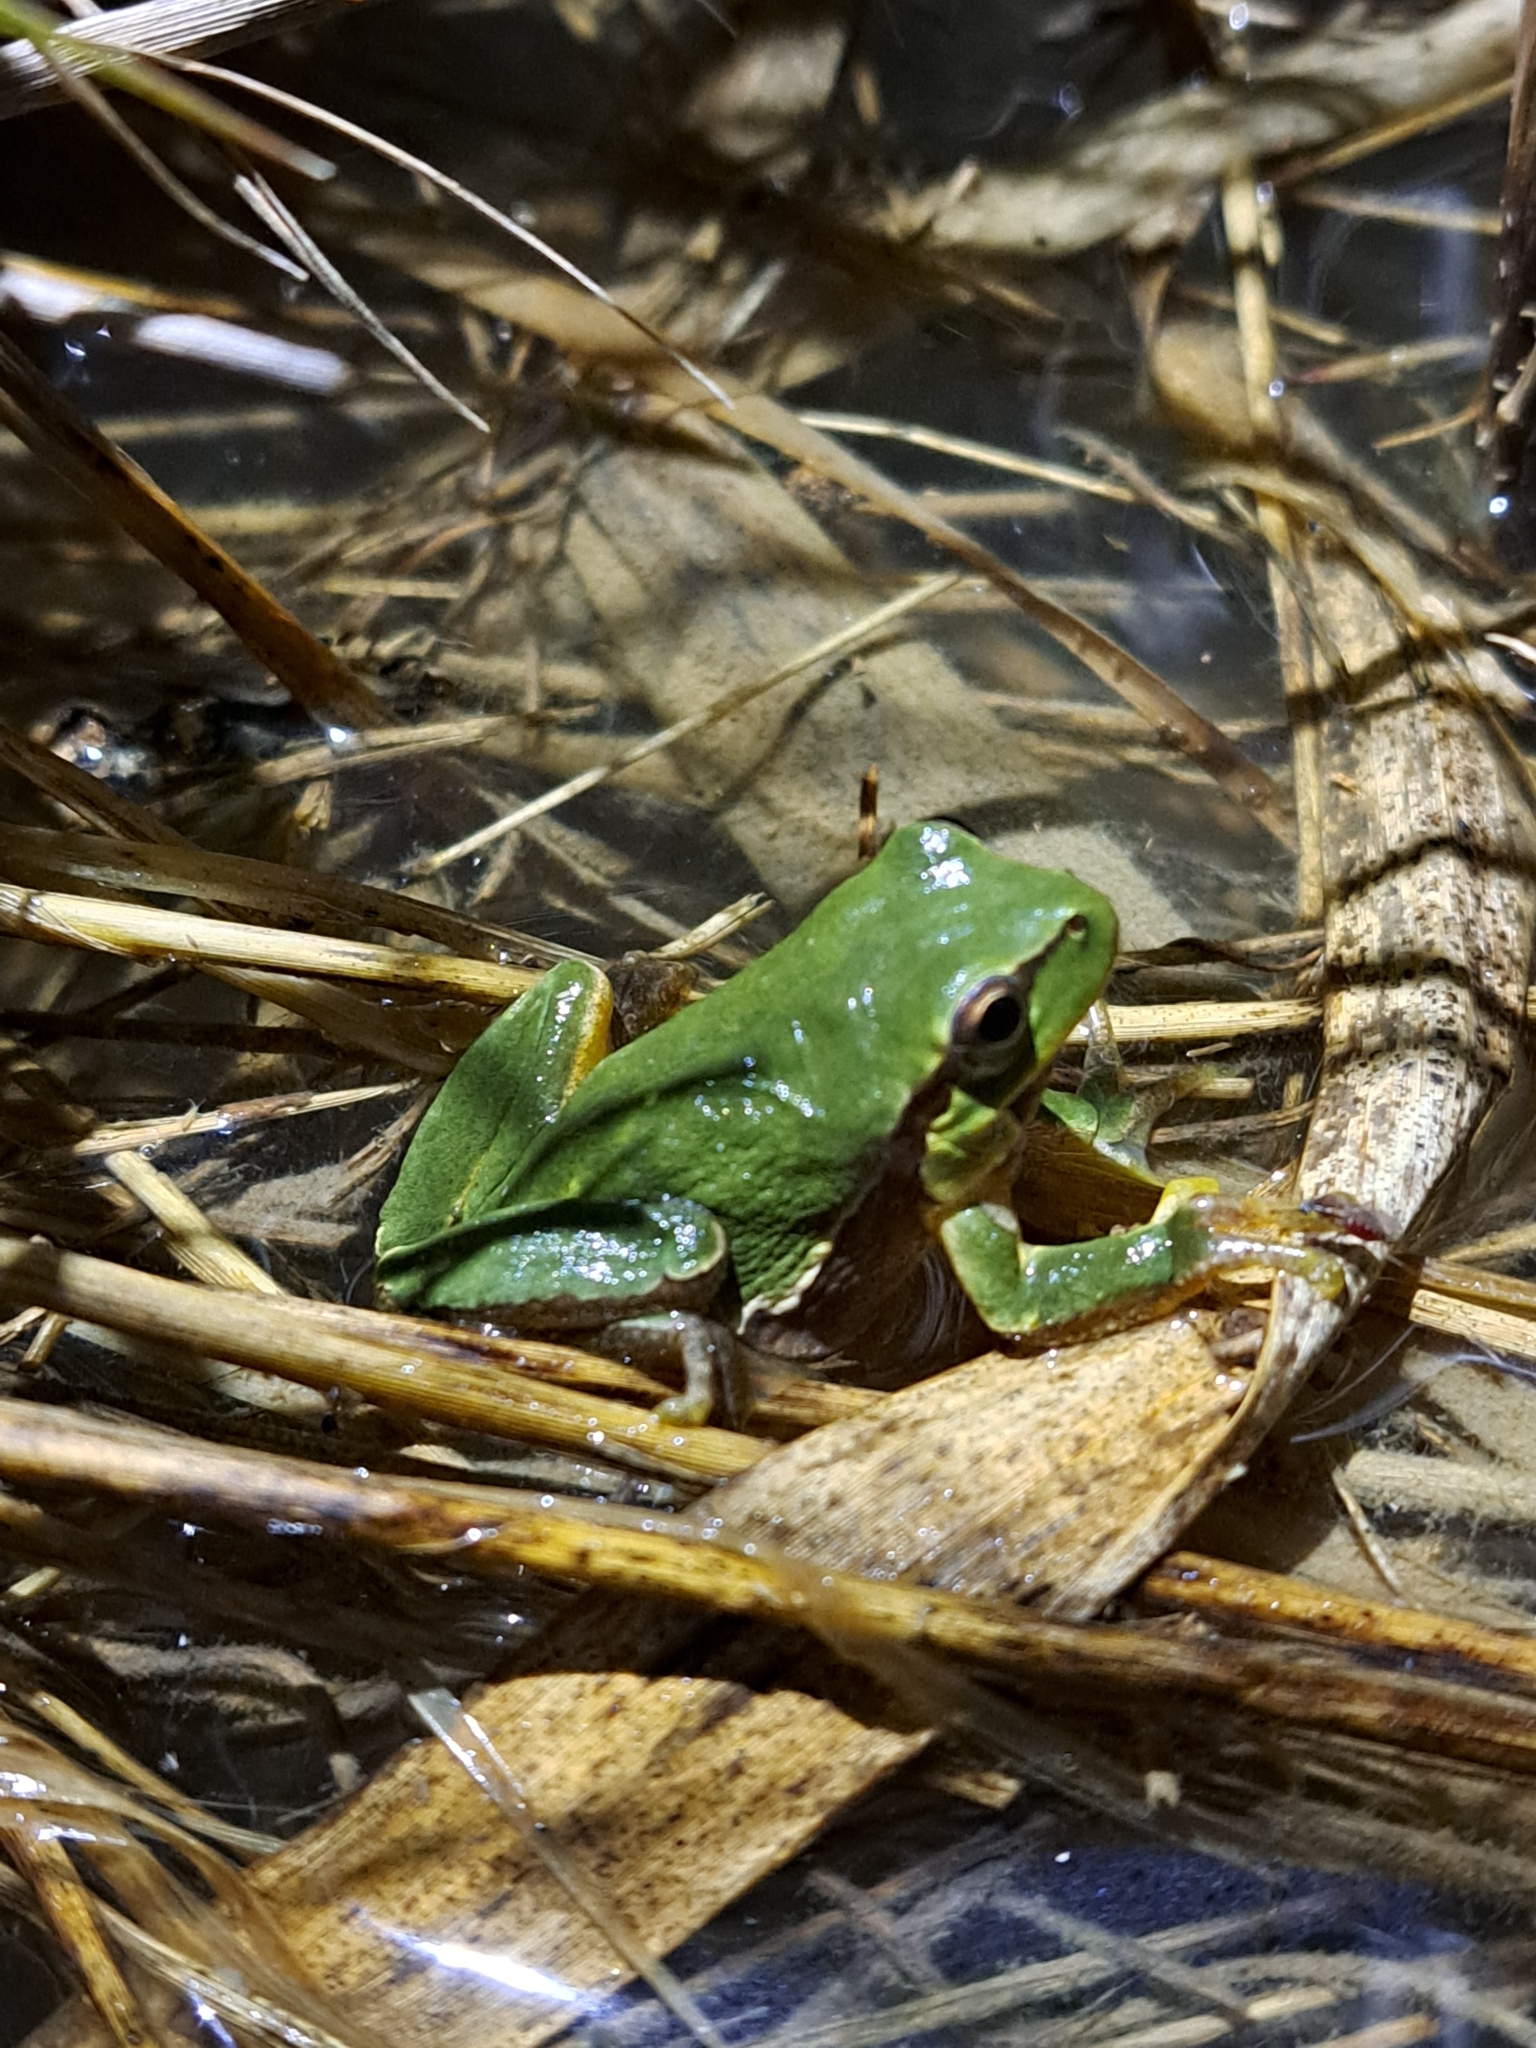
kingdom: Animalia
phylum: Chordata
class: Amphibia
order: Anura
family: Hylidae
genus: Hyla
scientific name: Hyla intermedia
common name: Italian tree frog
